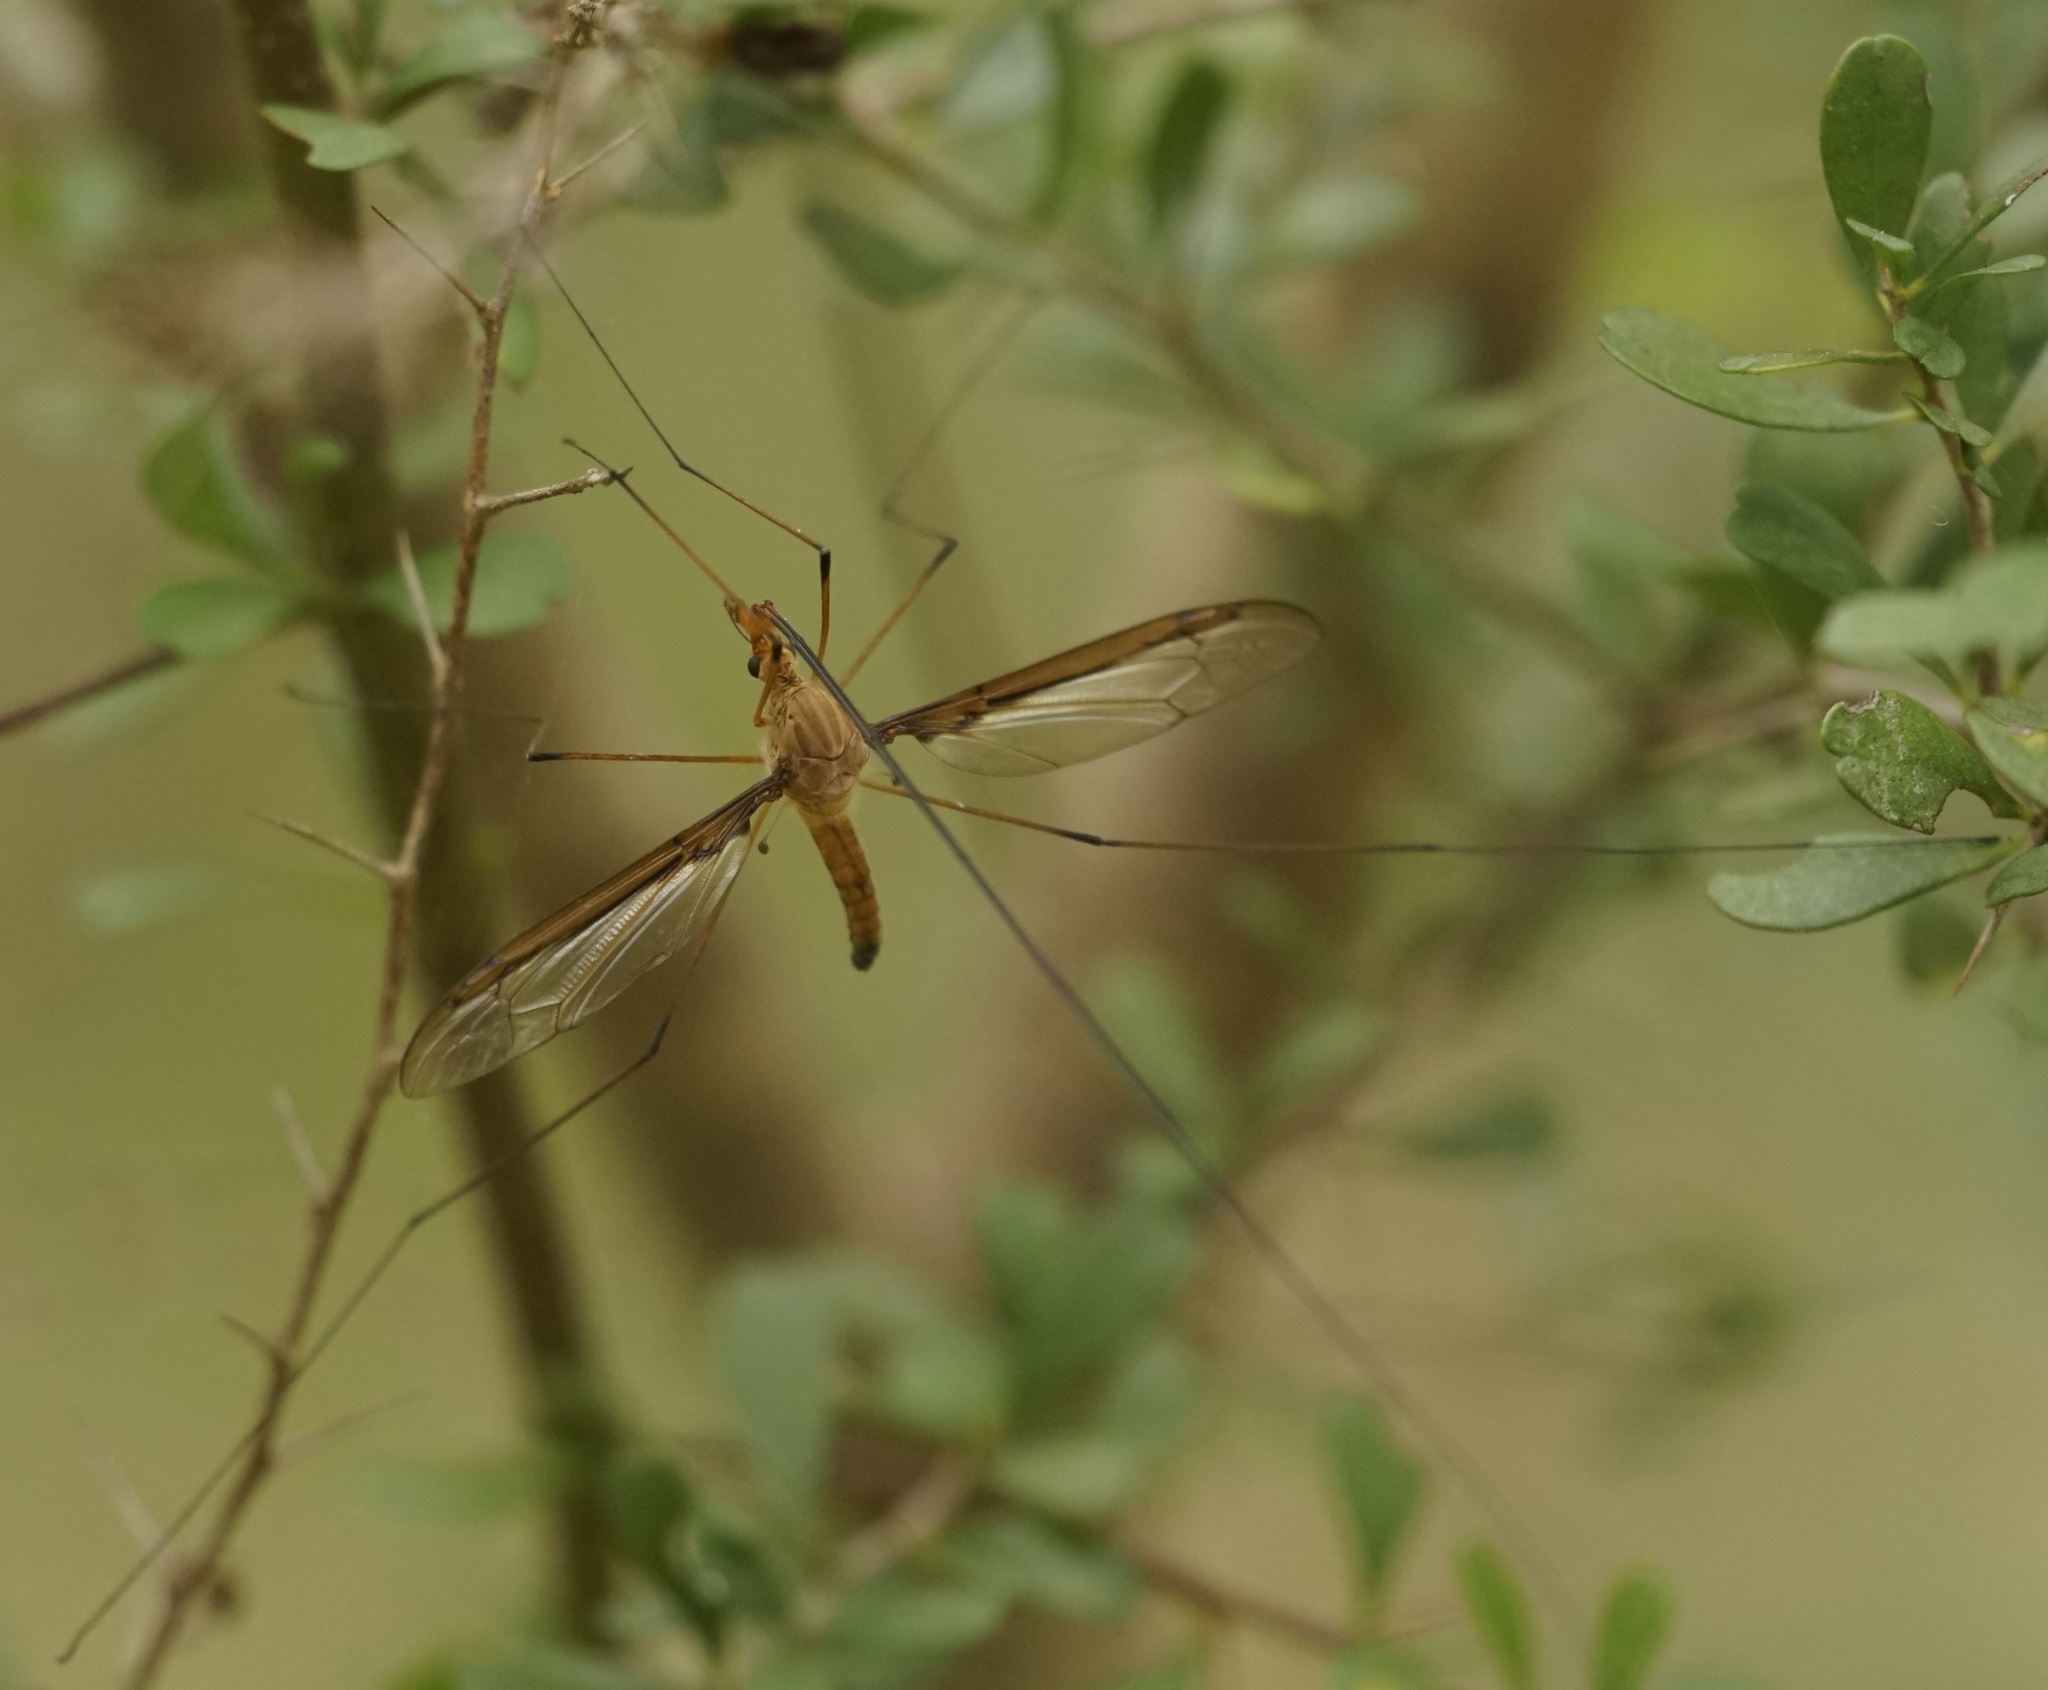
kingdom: Animalia
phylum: Arthropoda
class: Insecta
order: Diptera
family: Tipulidae
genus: Leptotarsus
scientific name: Leptotarsus costalis
